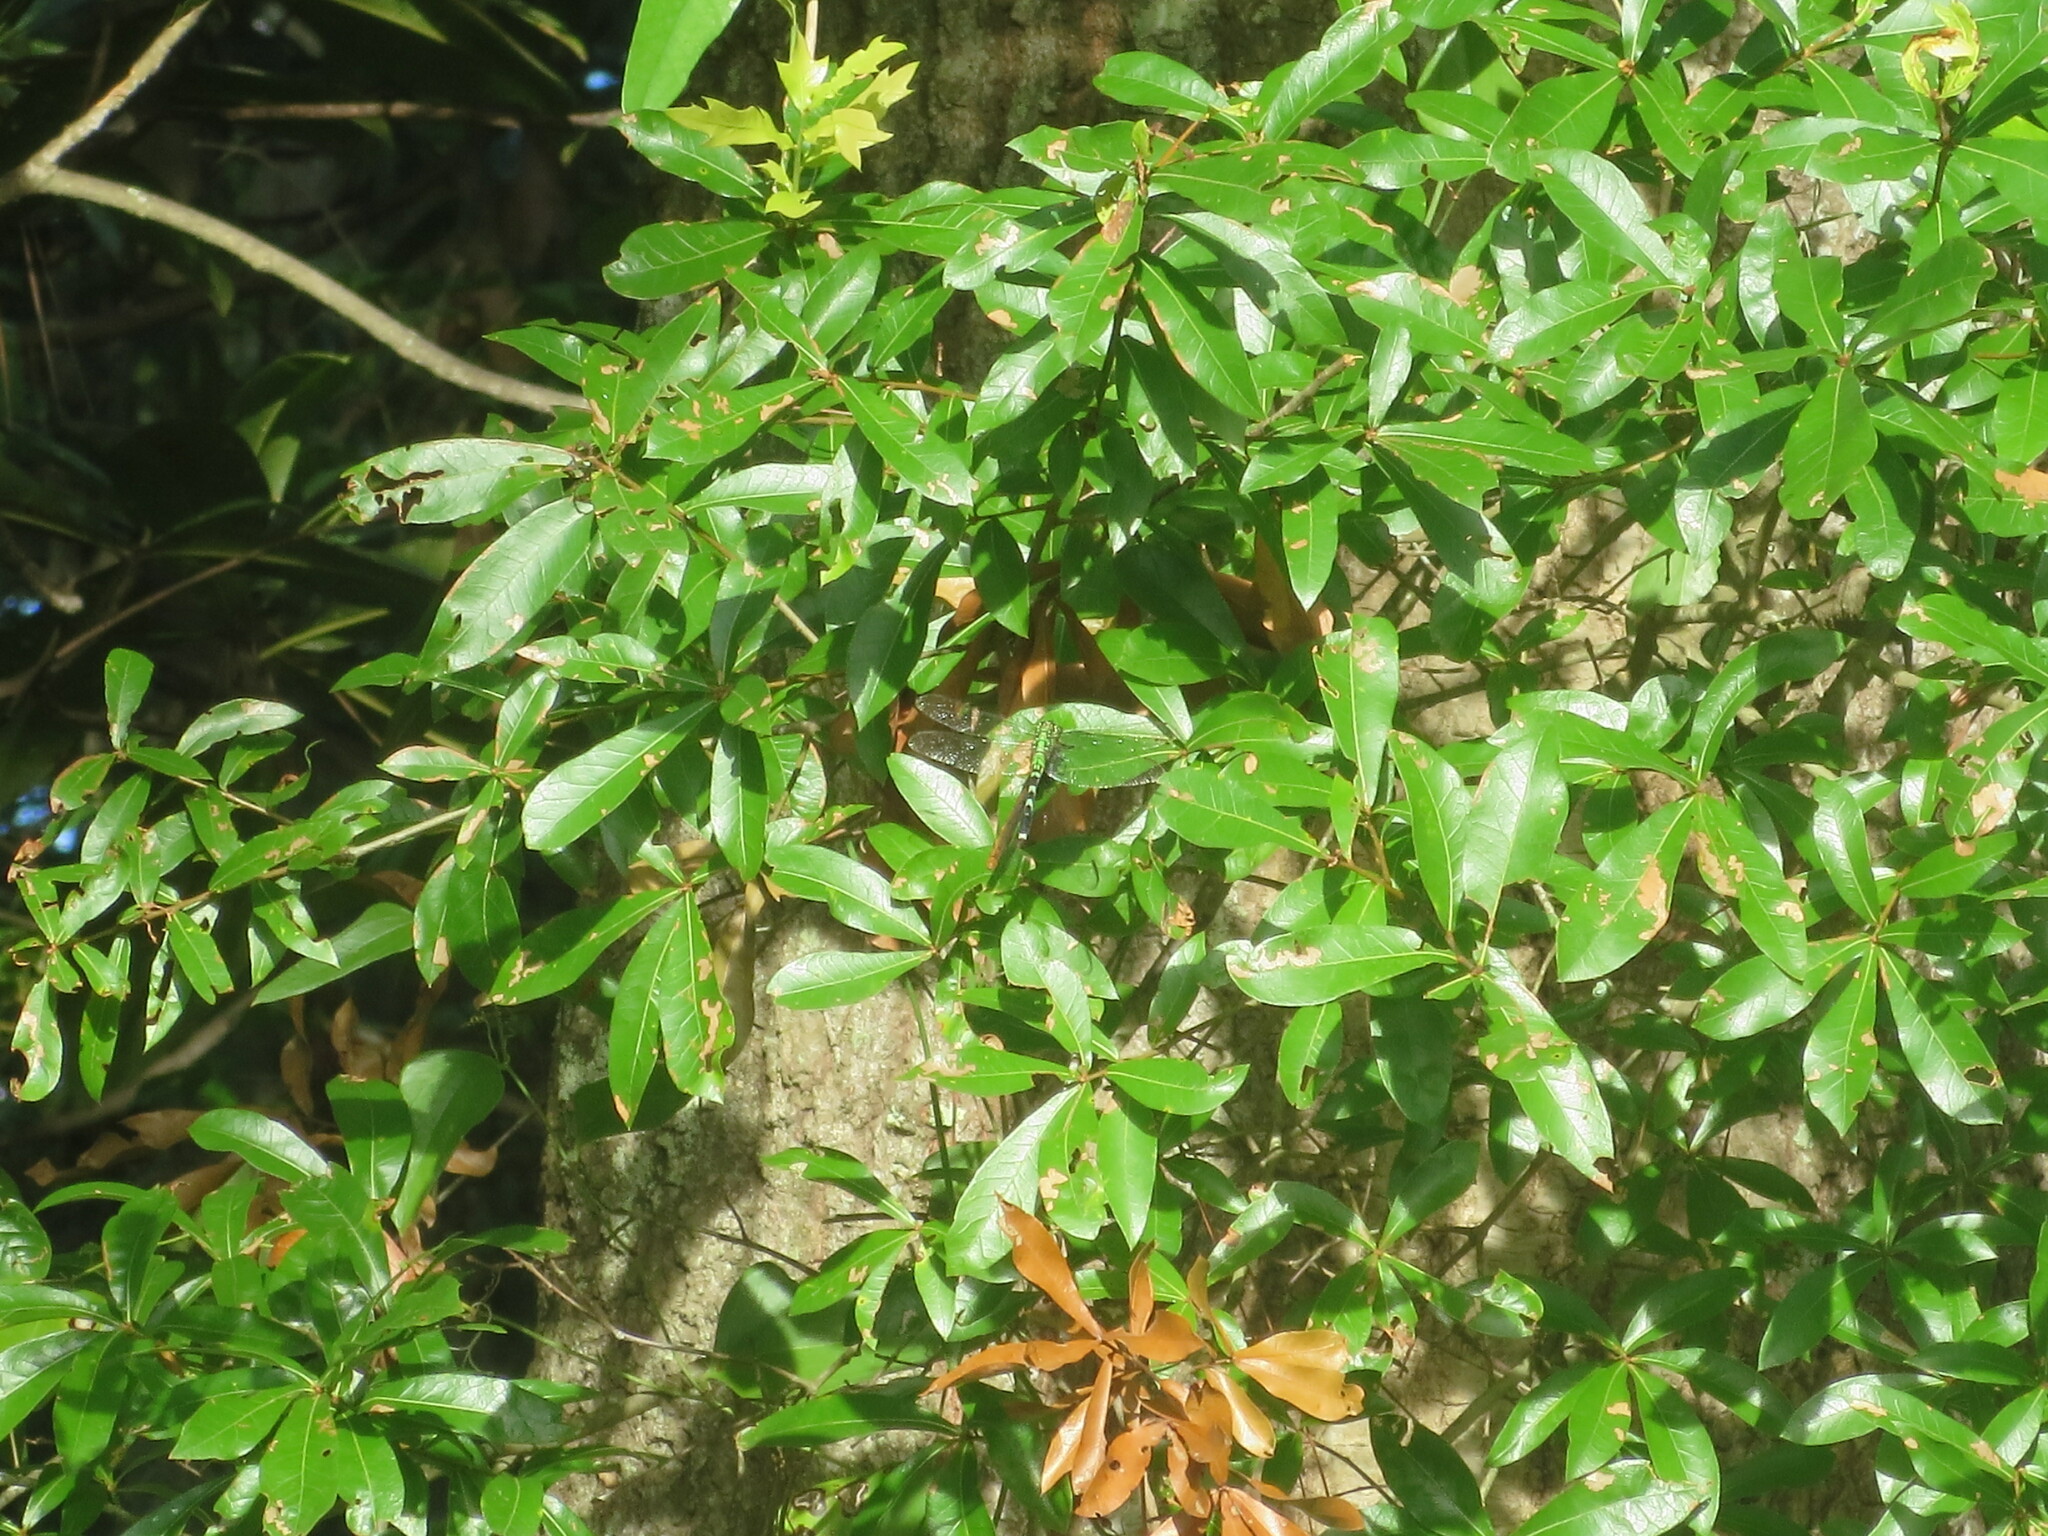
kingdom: Animalia
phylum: Arthropoda
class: Insecta
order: Odonata
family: Libellulidae
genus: Erythemis
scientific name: Erythemis simplicicollis
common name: Eastern pondhawk
